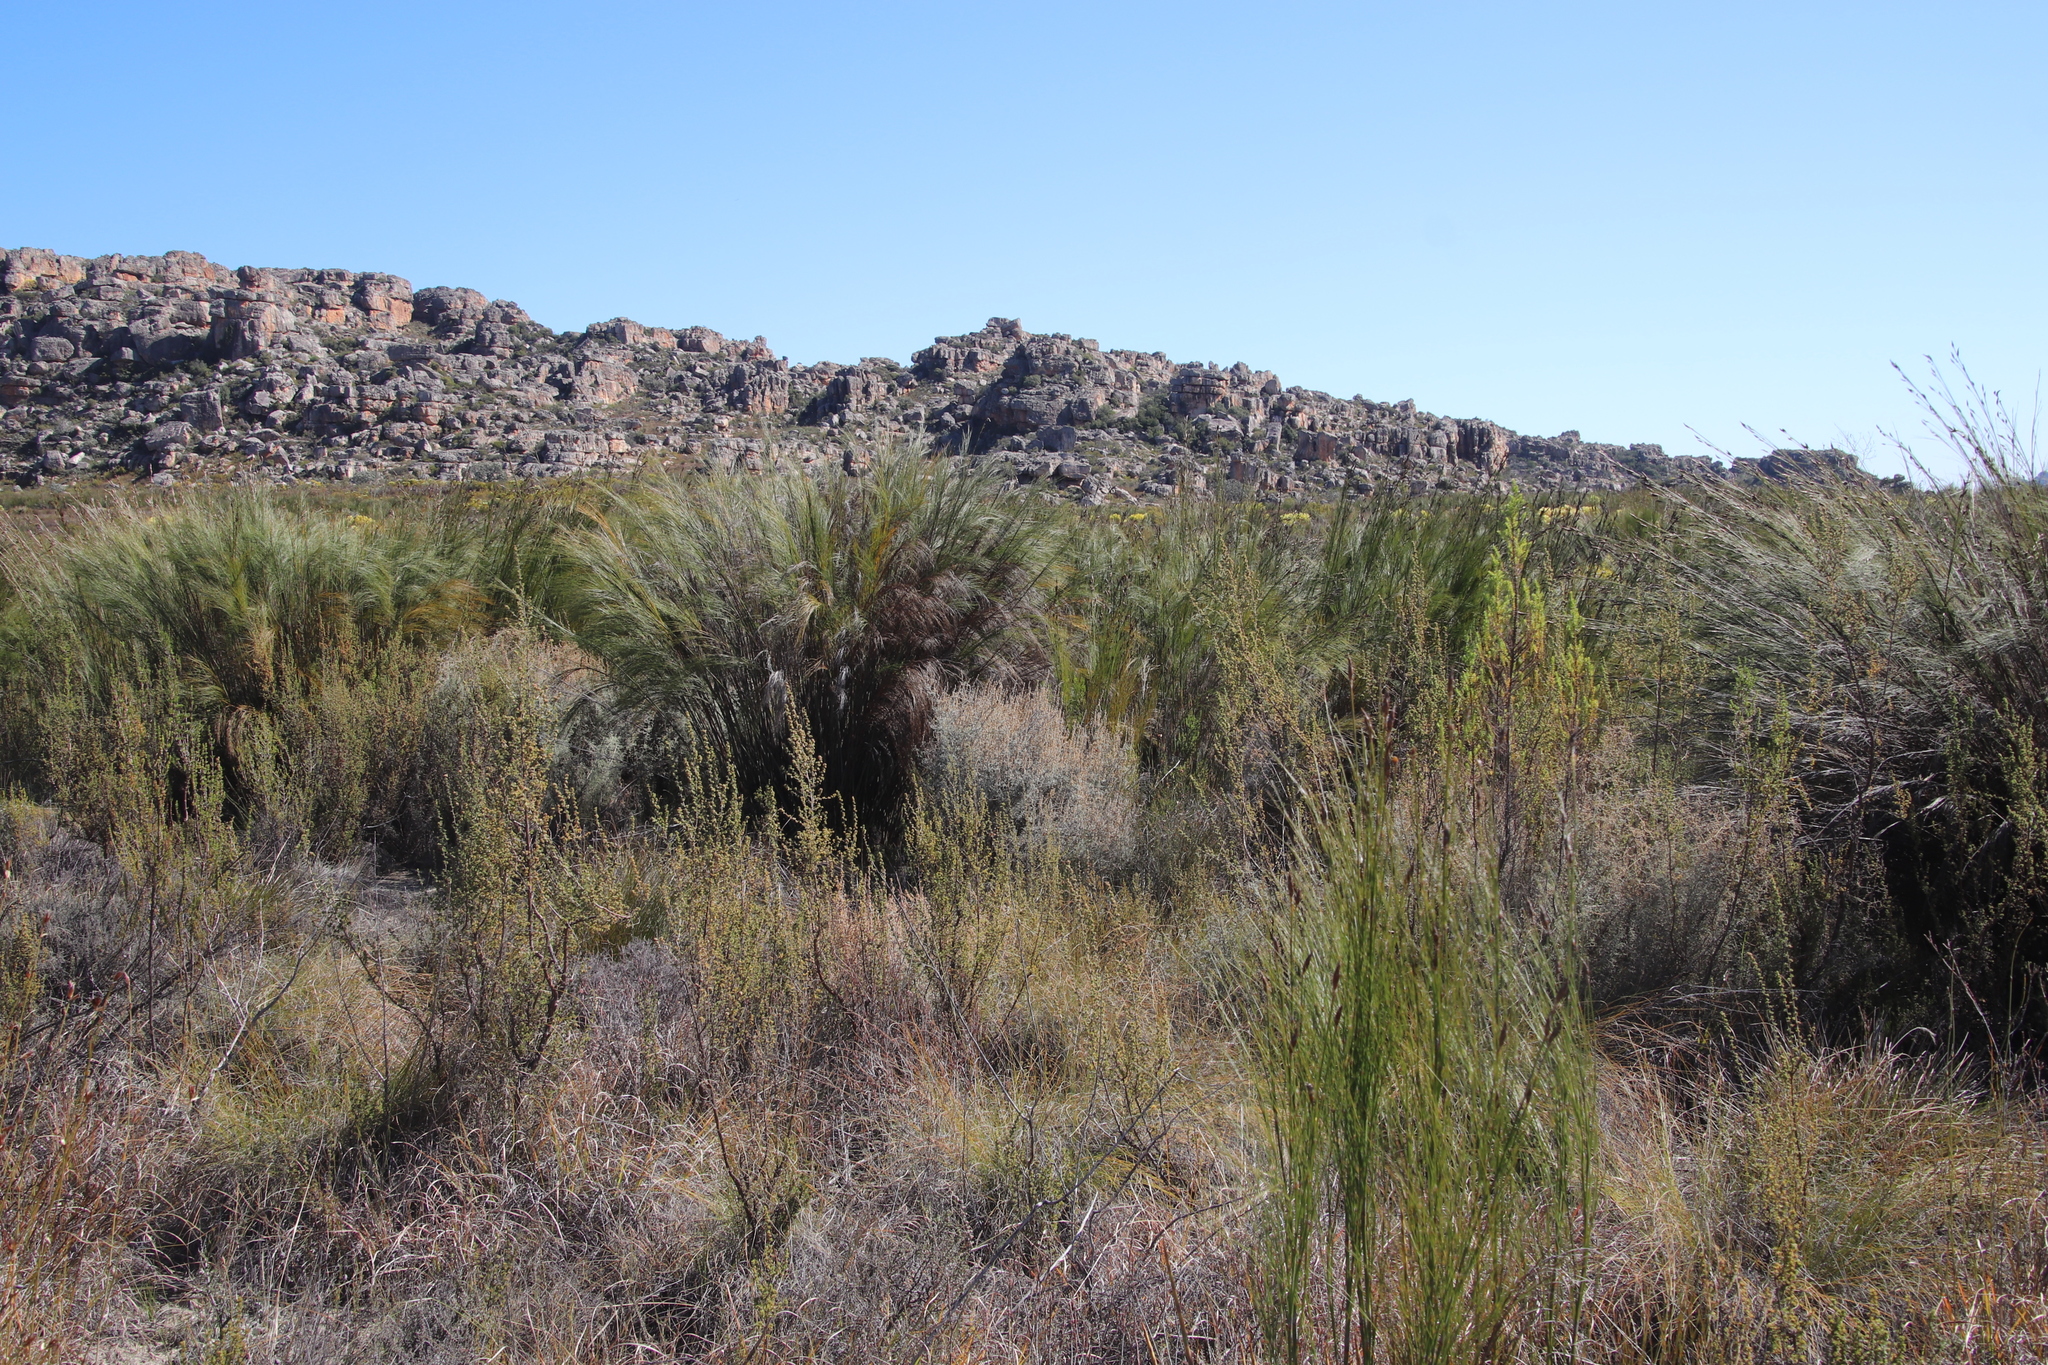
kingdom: Plantae
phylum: Tracheophyta
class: Liliopsida
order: Poales
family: Restionaceae
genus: Cannomois
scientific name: Cannomois robusta
